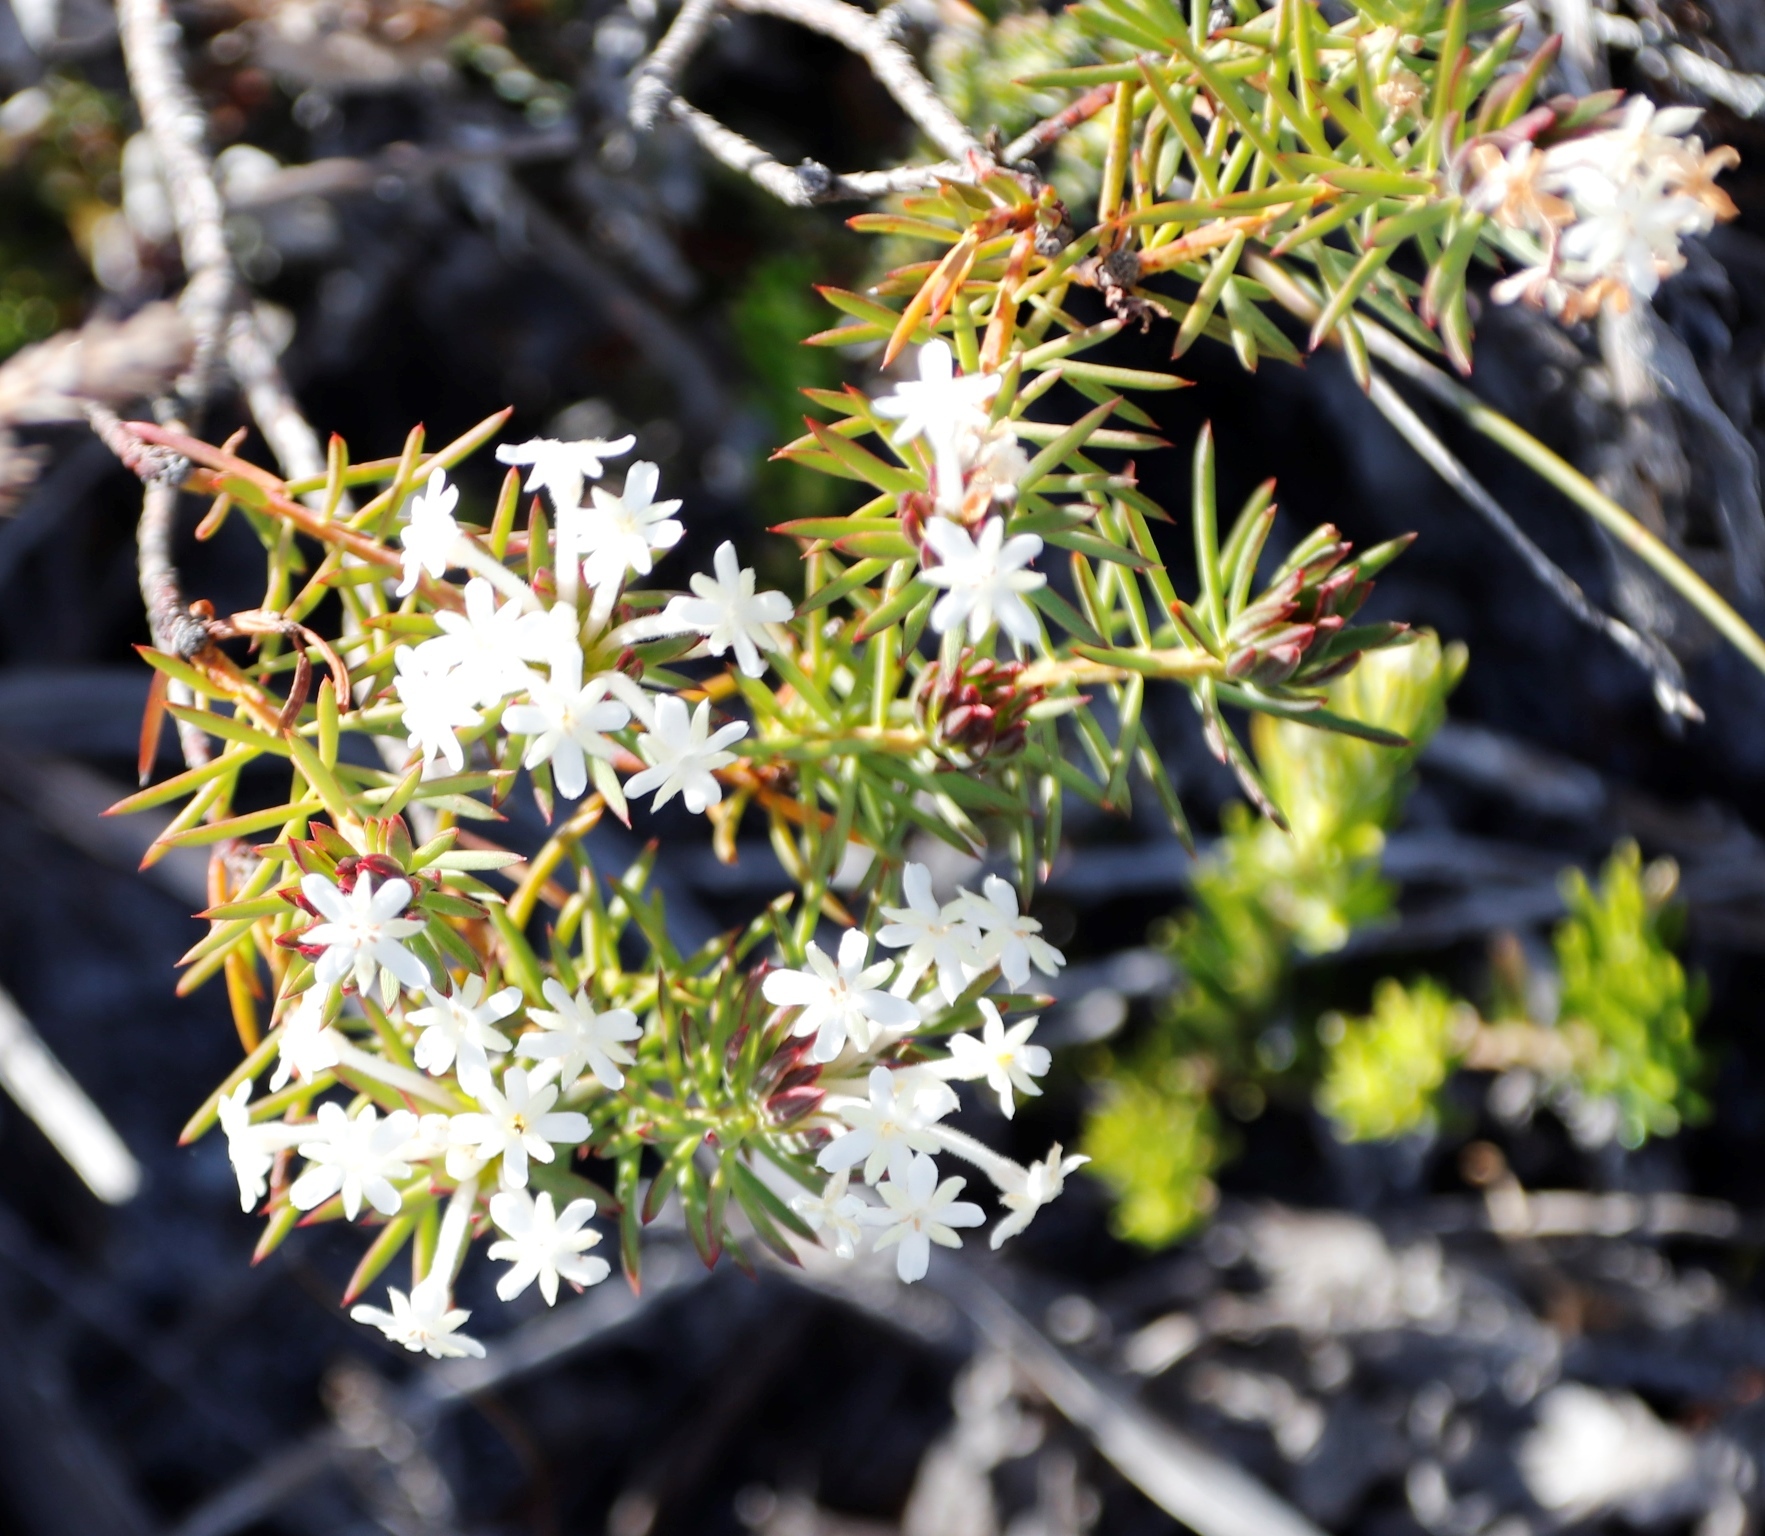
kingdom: Plantae
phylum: Tracheophyta
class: Magnoliopsida
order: Malvales
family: Thymelaeaceae
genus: Gnidia
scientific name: Gnidia pinifolia
